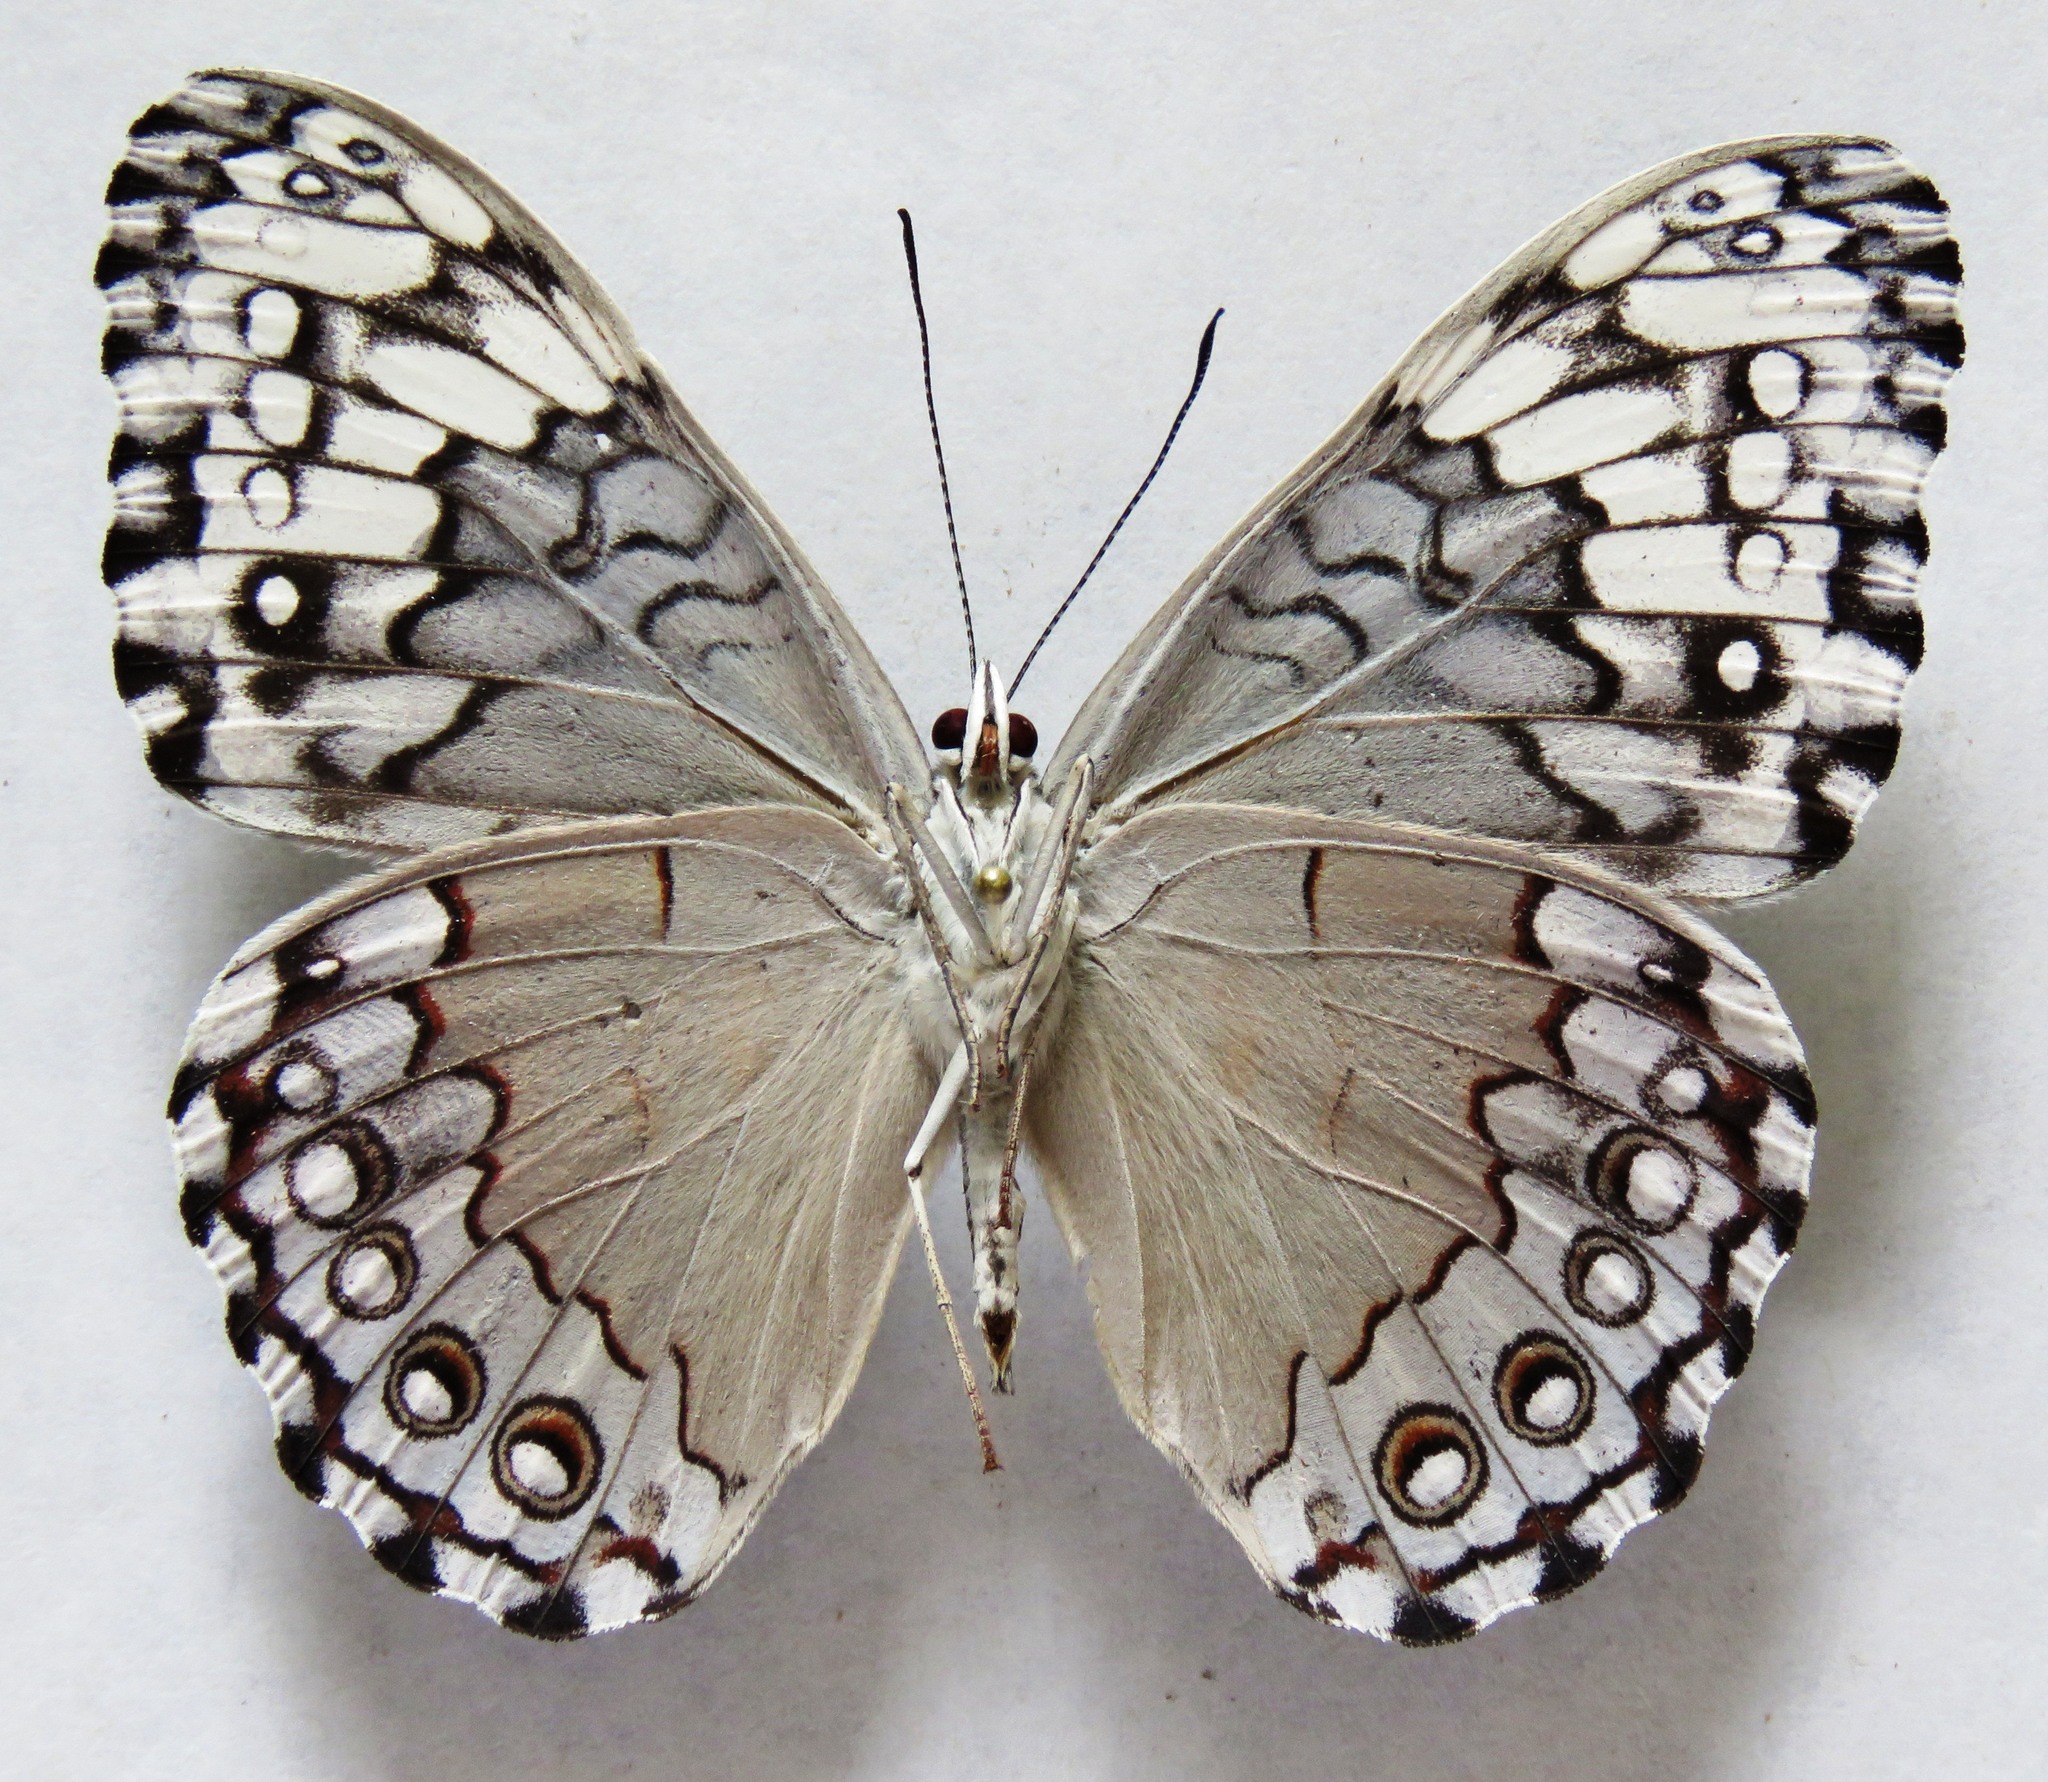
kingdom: Animalia
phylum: Arthropoda
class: Insecta
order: Lepidoptera
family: Nymphalidae
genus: Hamadryas
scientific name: Hamadryas glauconome
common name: Glaucous cracker
